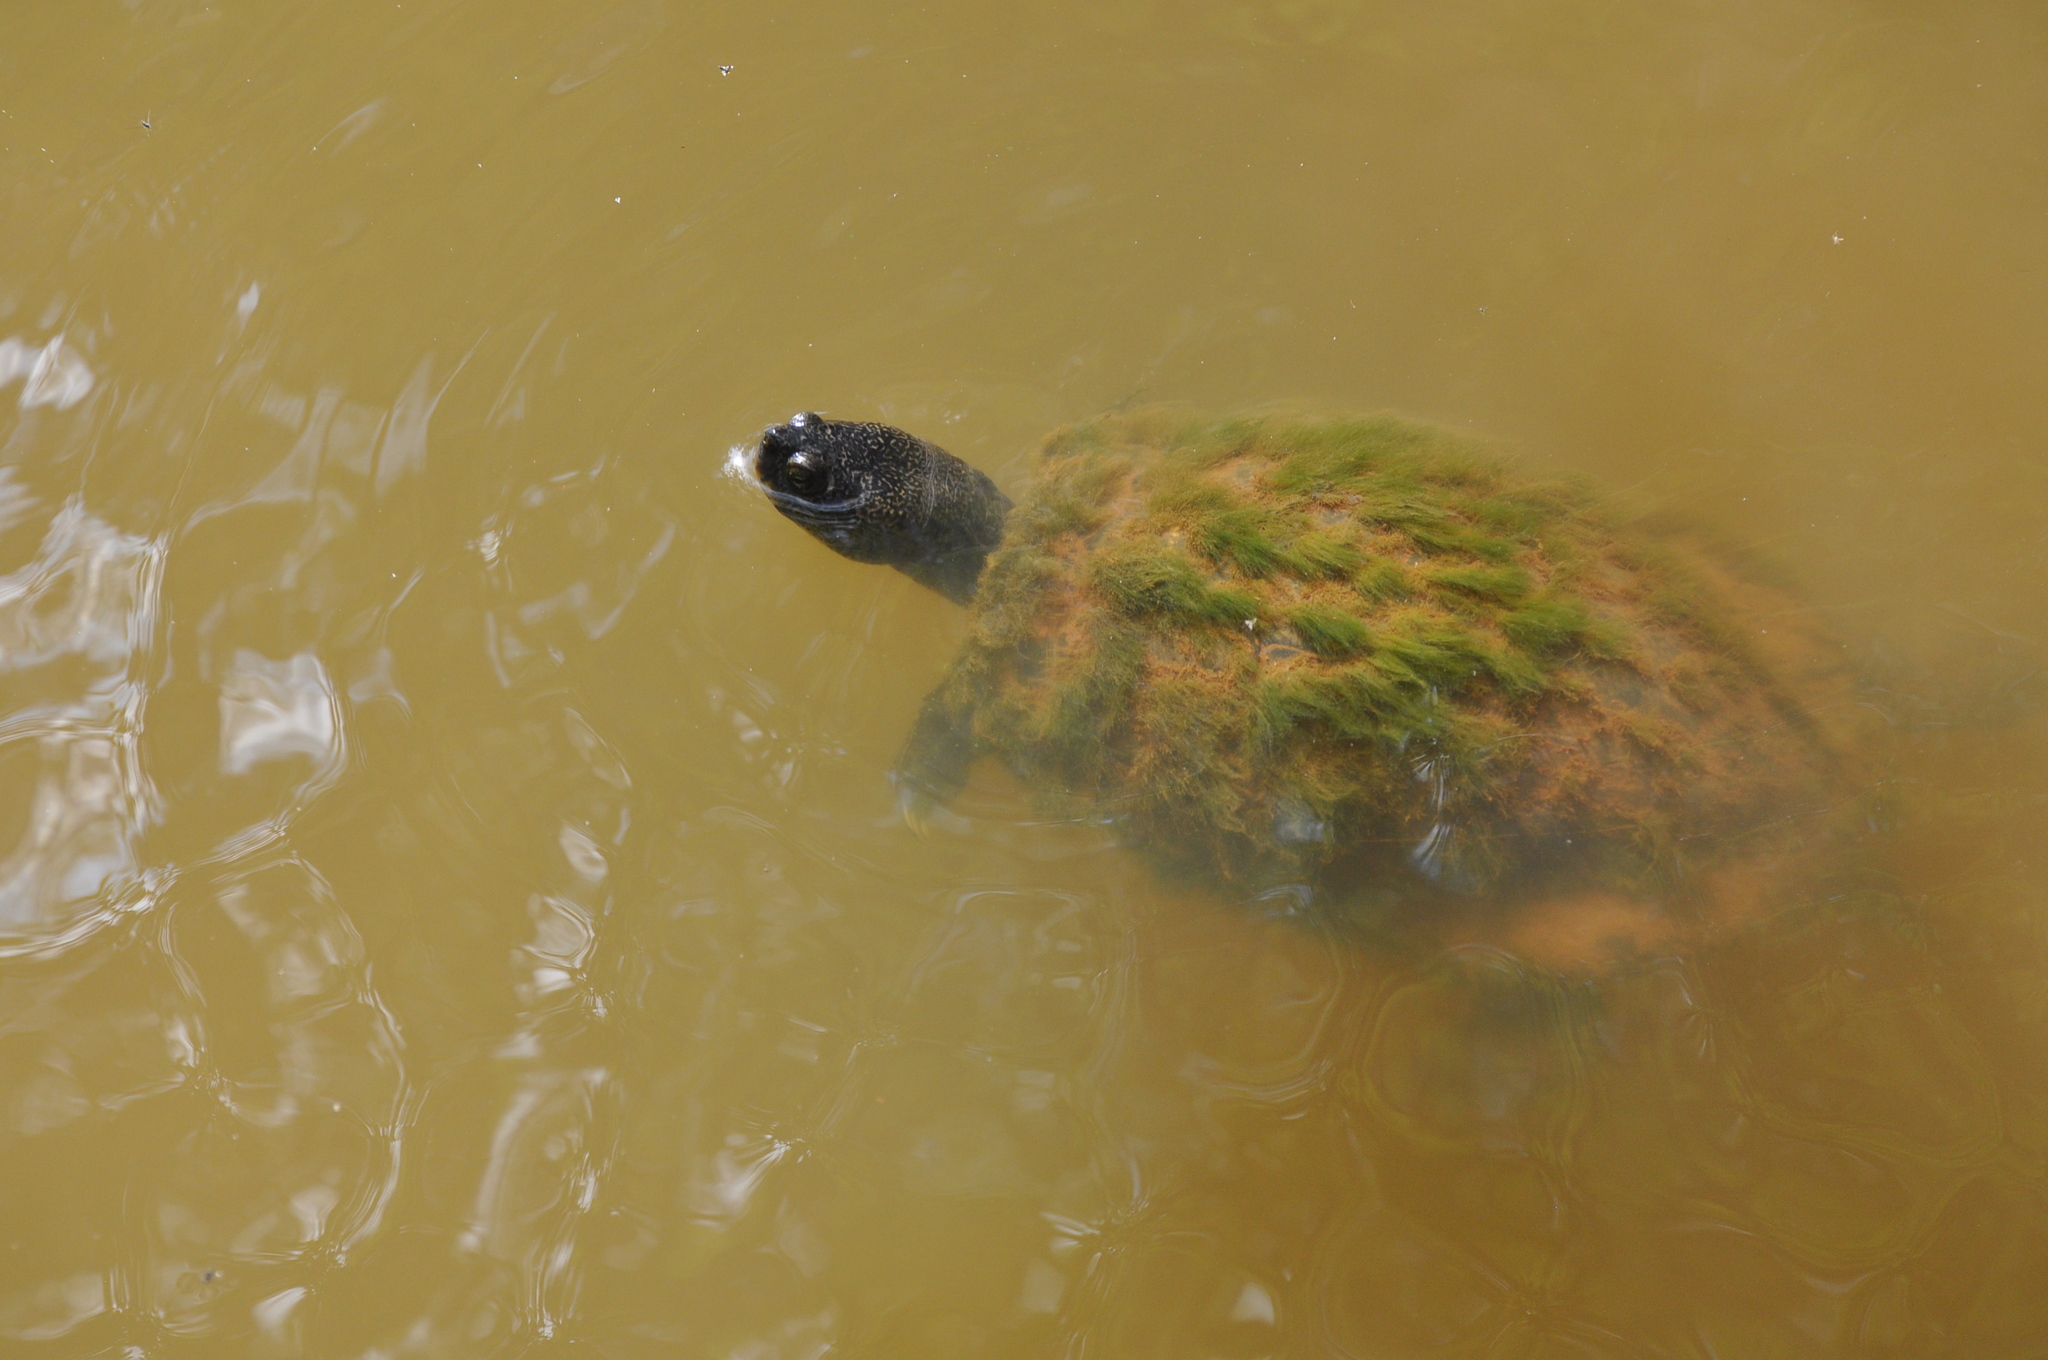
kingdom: Animalia
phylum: Chordata
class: Testudines
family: Emydidae
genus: Trachemys
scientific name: Trachemys scripta
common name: Slider
